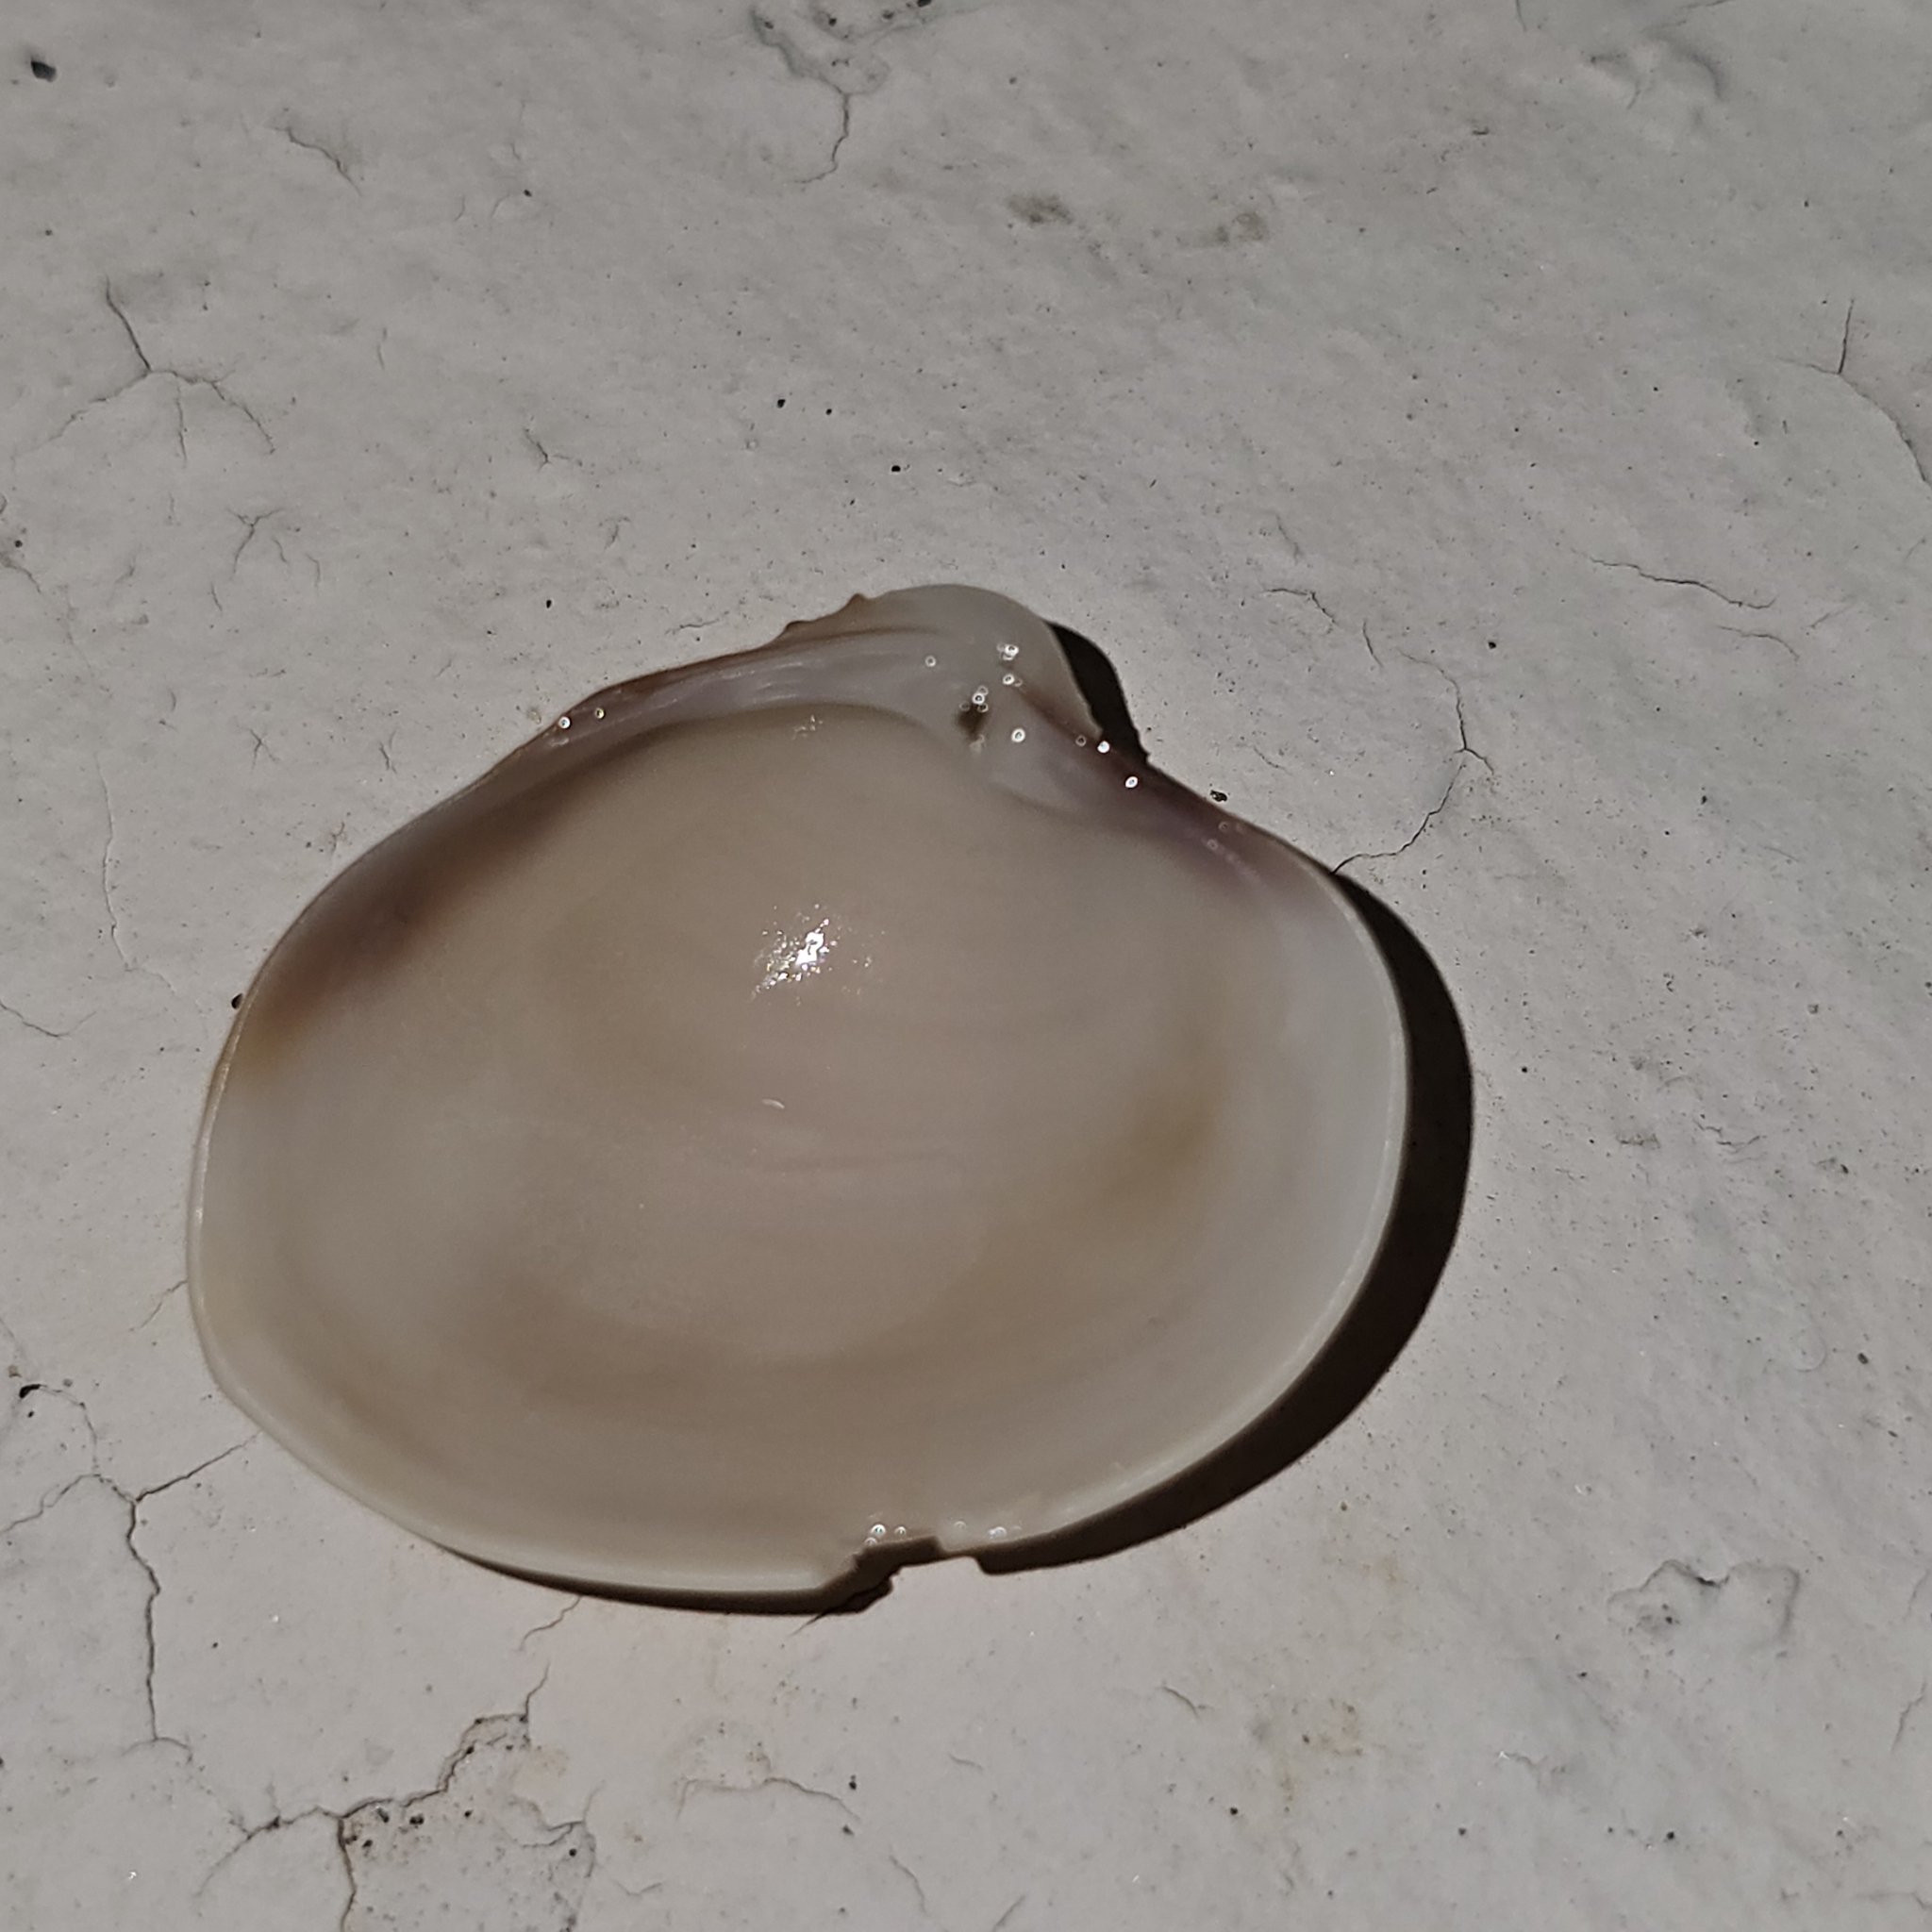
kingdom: Animalia
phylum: Mollusca
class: Bivalvia
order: Venerida
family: Veneridae
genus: Hysteroconcha
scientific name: Hysteroconcha lupanaria
